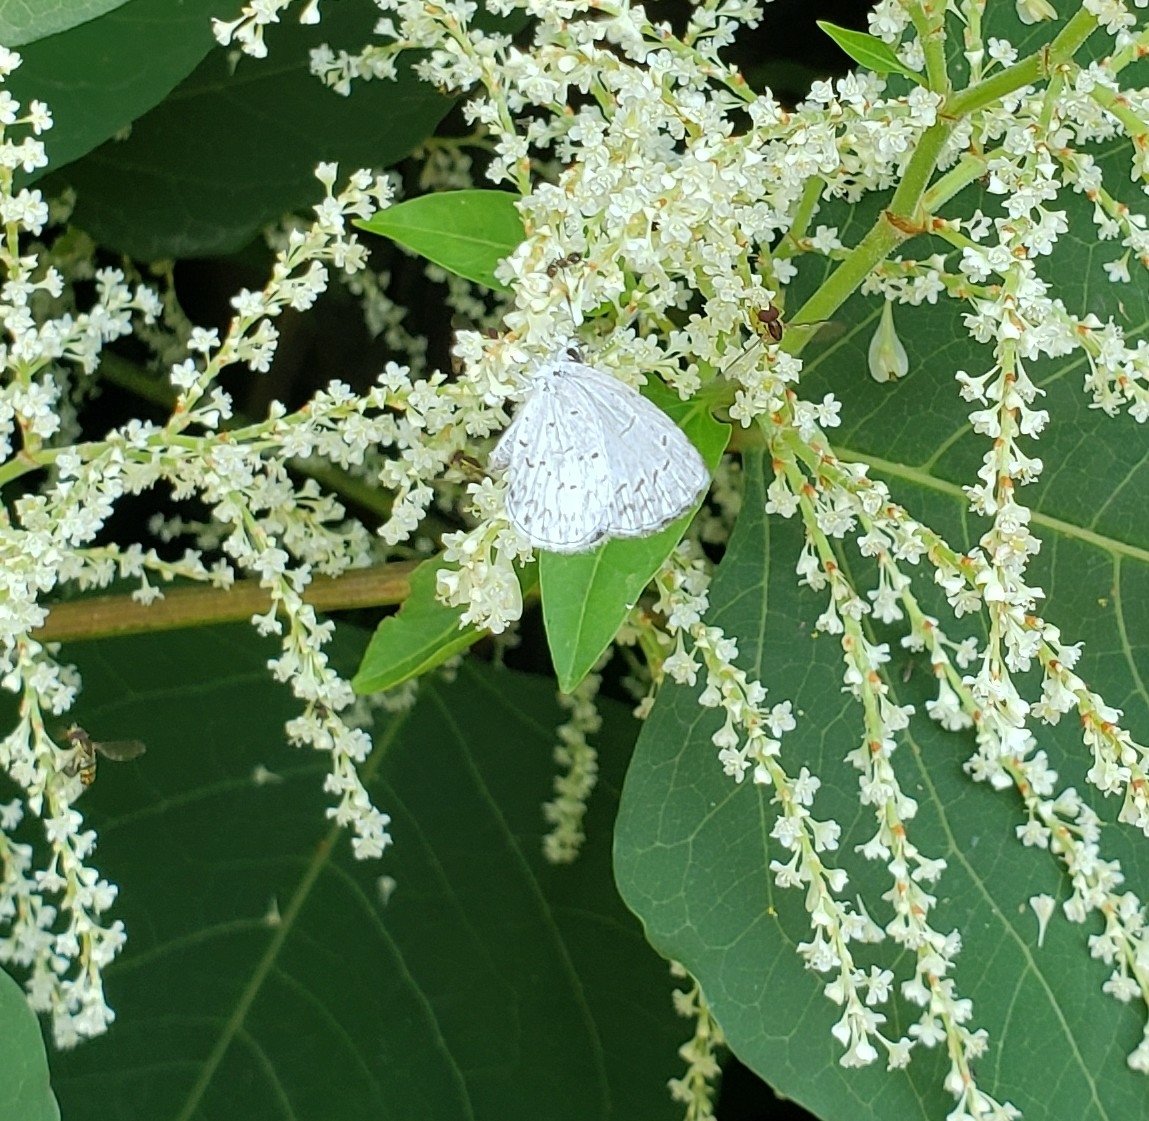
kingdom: Animalia
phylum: Arthropoda
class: Insecta
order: Lepidoptera
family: Lycaenidae
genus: Cyaniris
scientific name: Cyaniris neglecta
